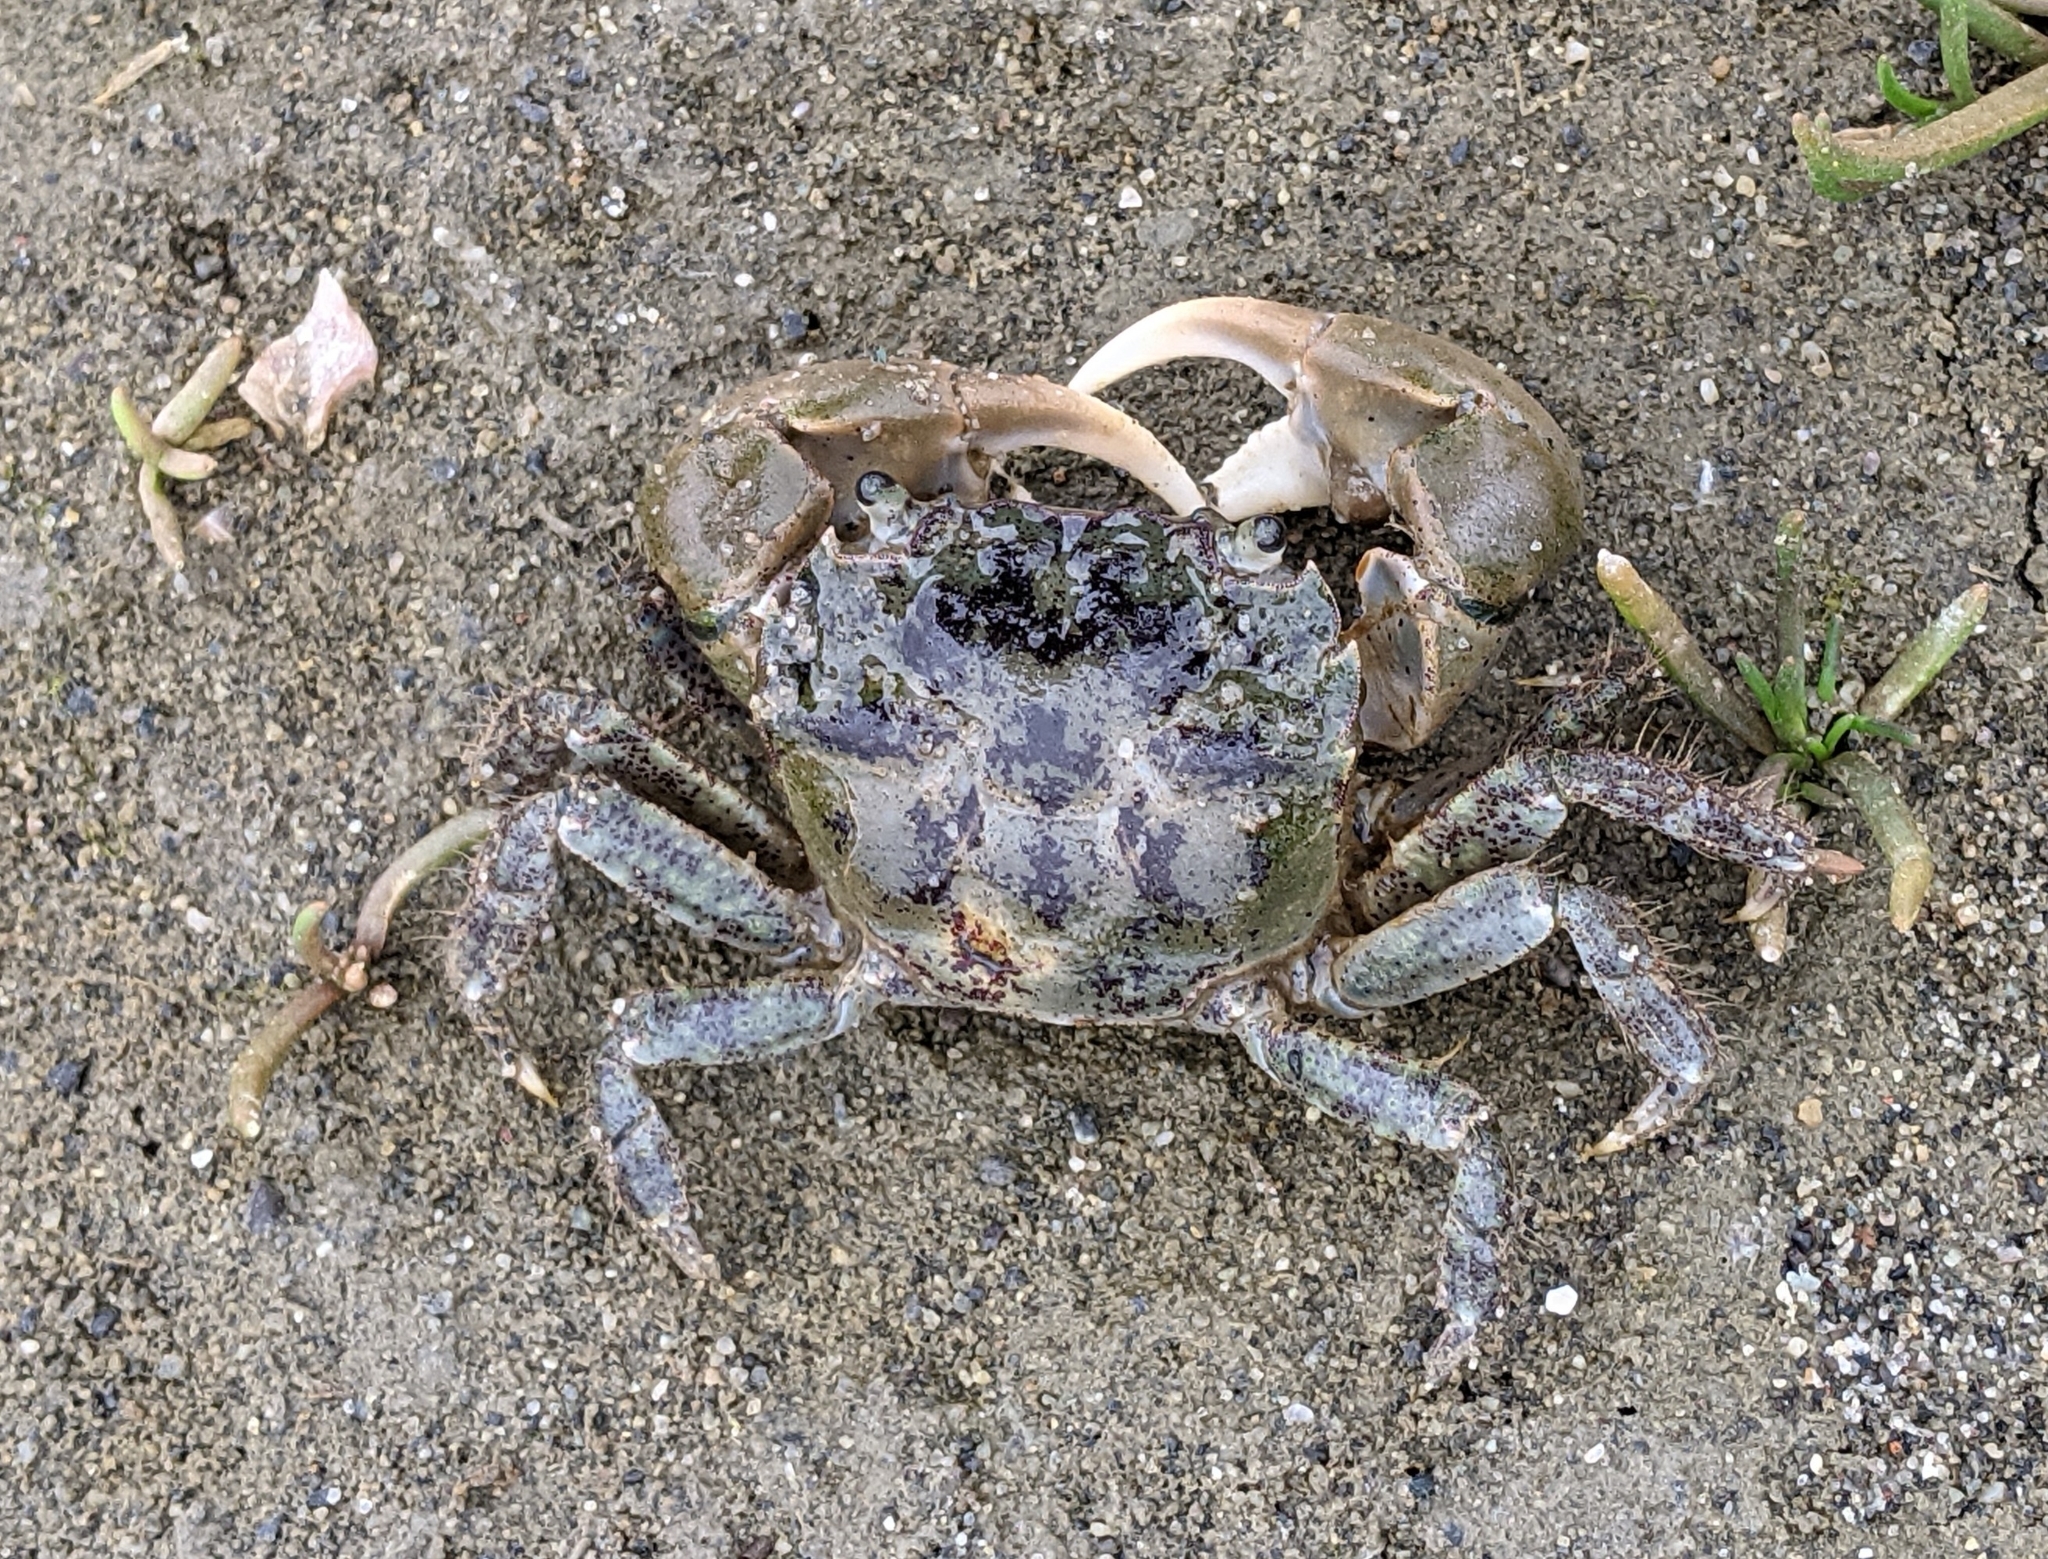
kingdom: Animalia
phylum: Arthropoda
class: Malacostraca
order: Decapoda
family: Varunidae
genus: Hemigrapsus
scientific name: Hemigrapsus oregonensis
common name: Yellow shore crab
